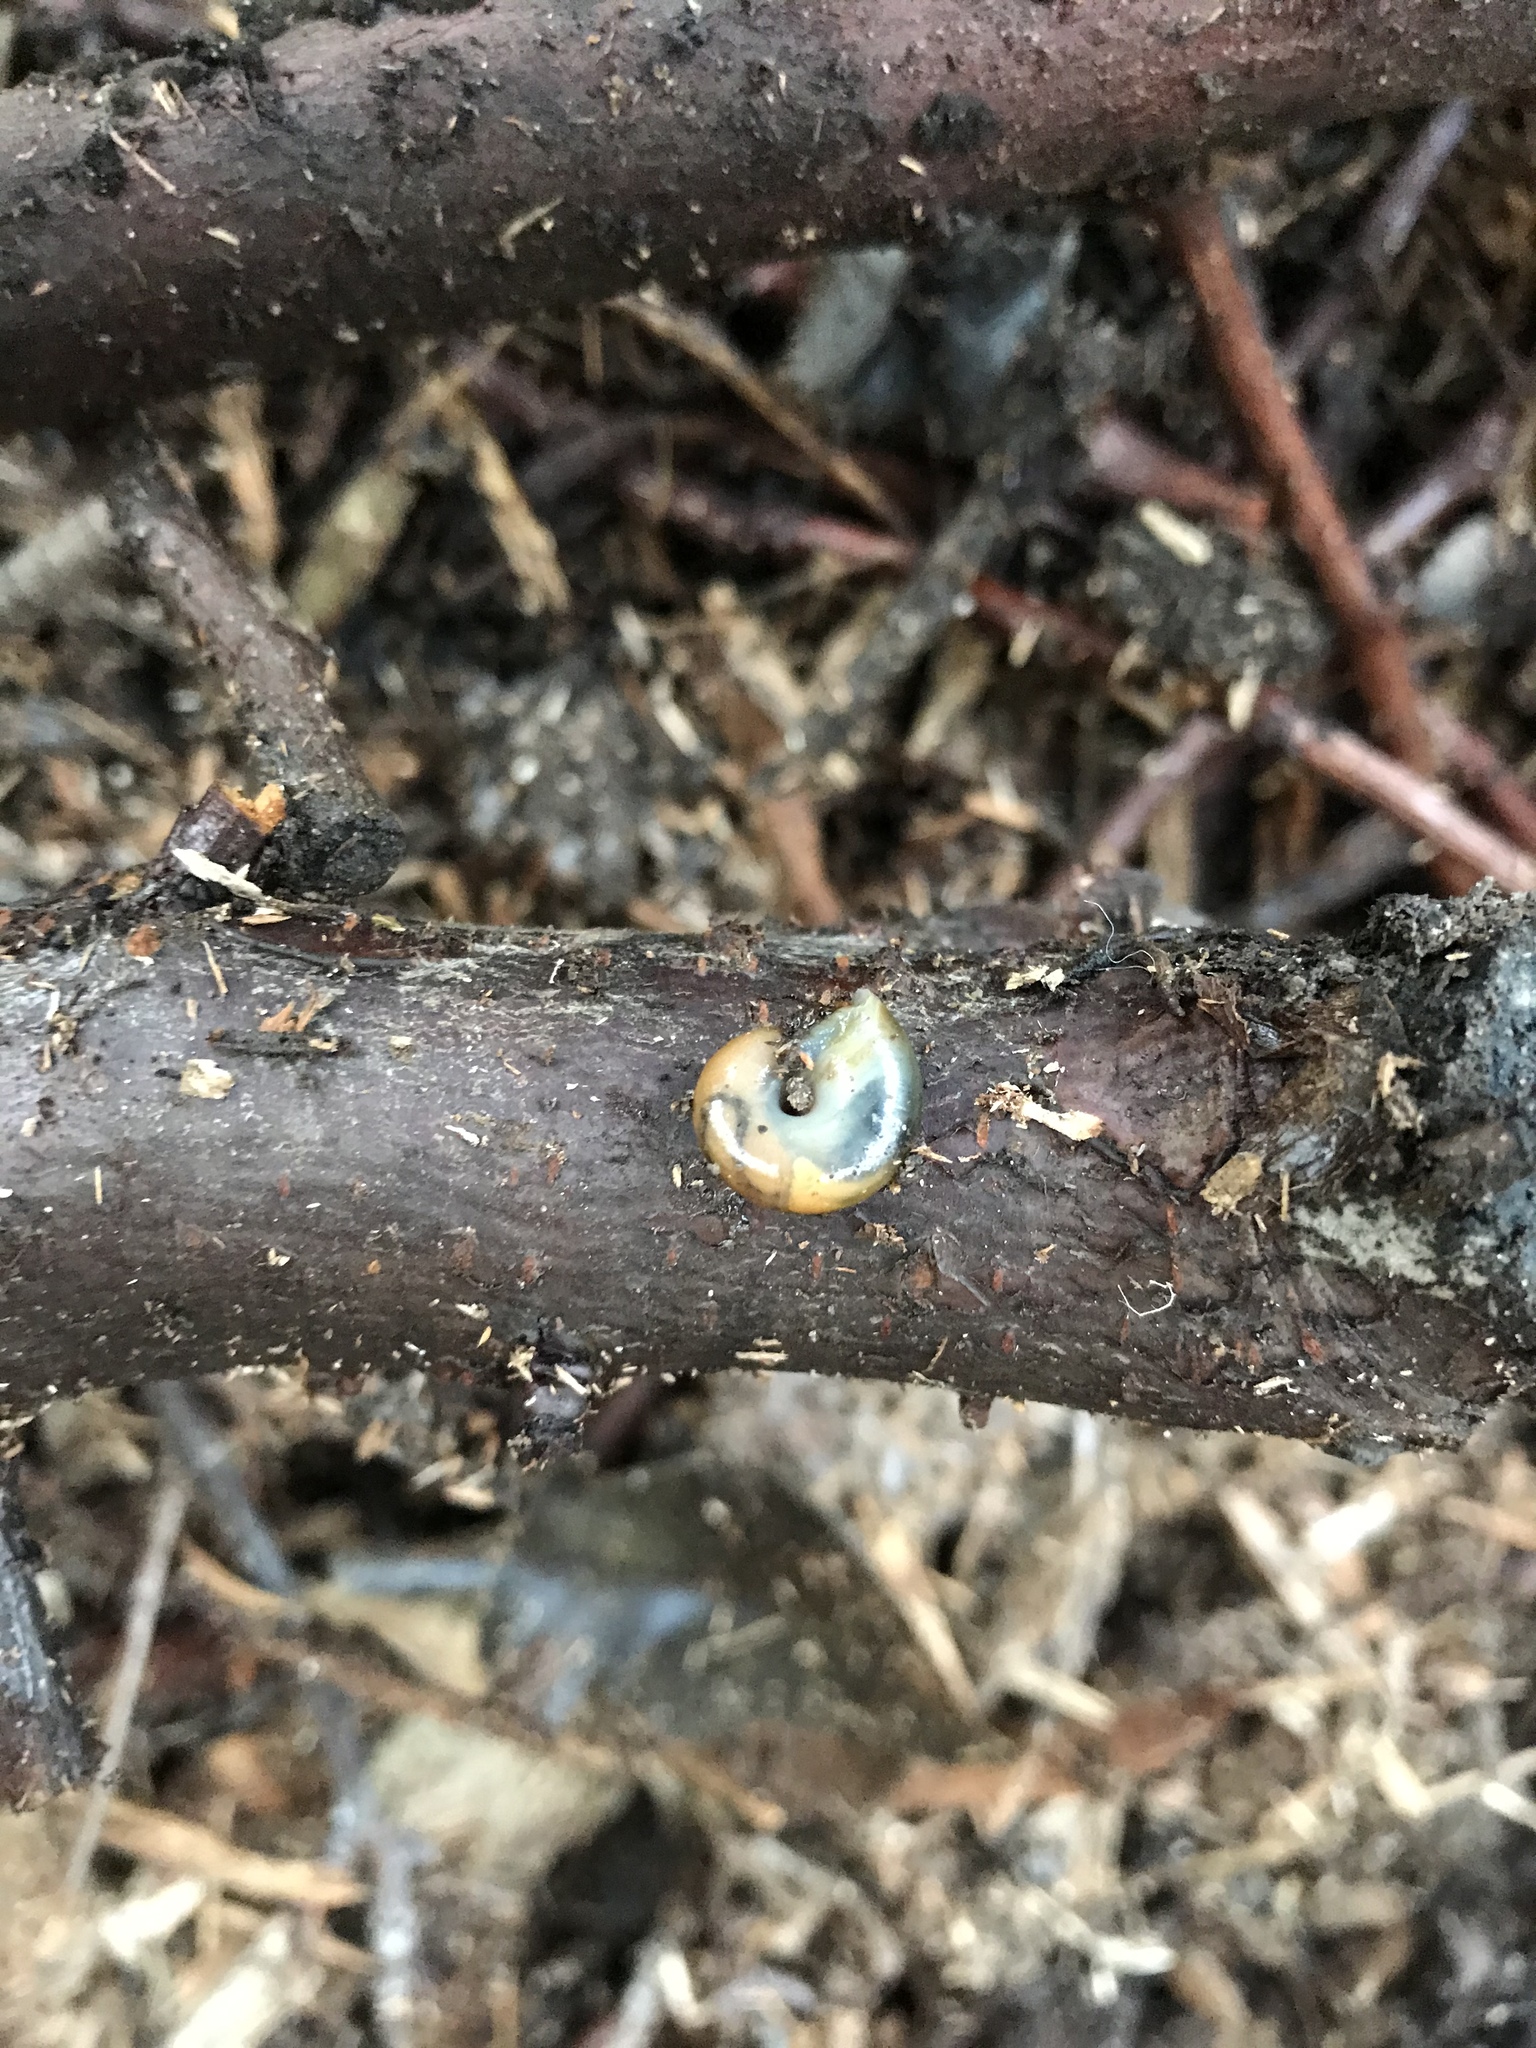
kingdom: Animalia
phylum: Mollusca
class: Gastropoda
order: Stylommatophora
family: Gastrodontidae
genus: Zonitoides
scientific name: Zonitoides nitidus
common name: Shiny glass snail
